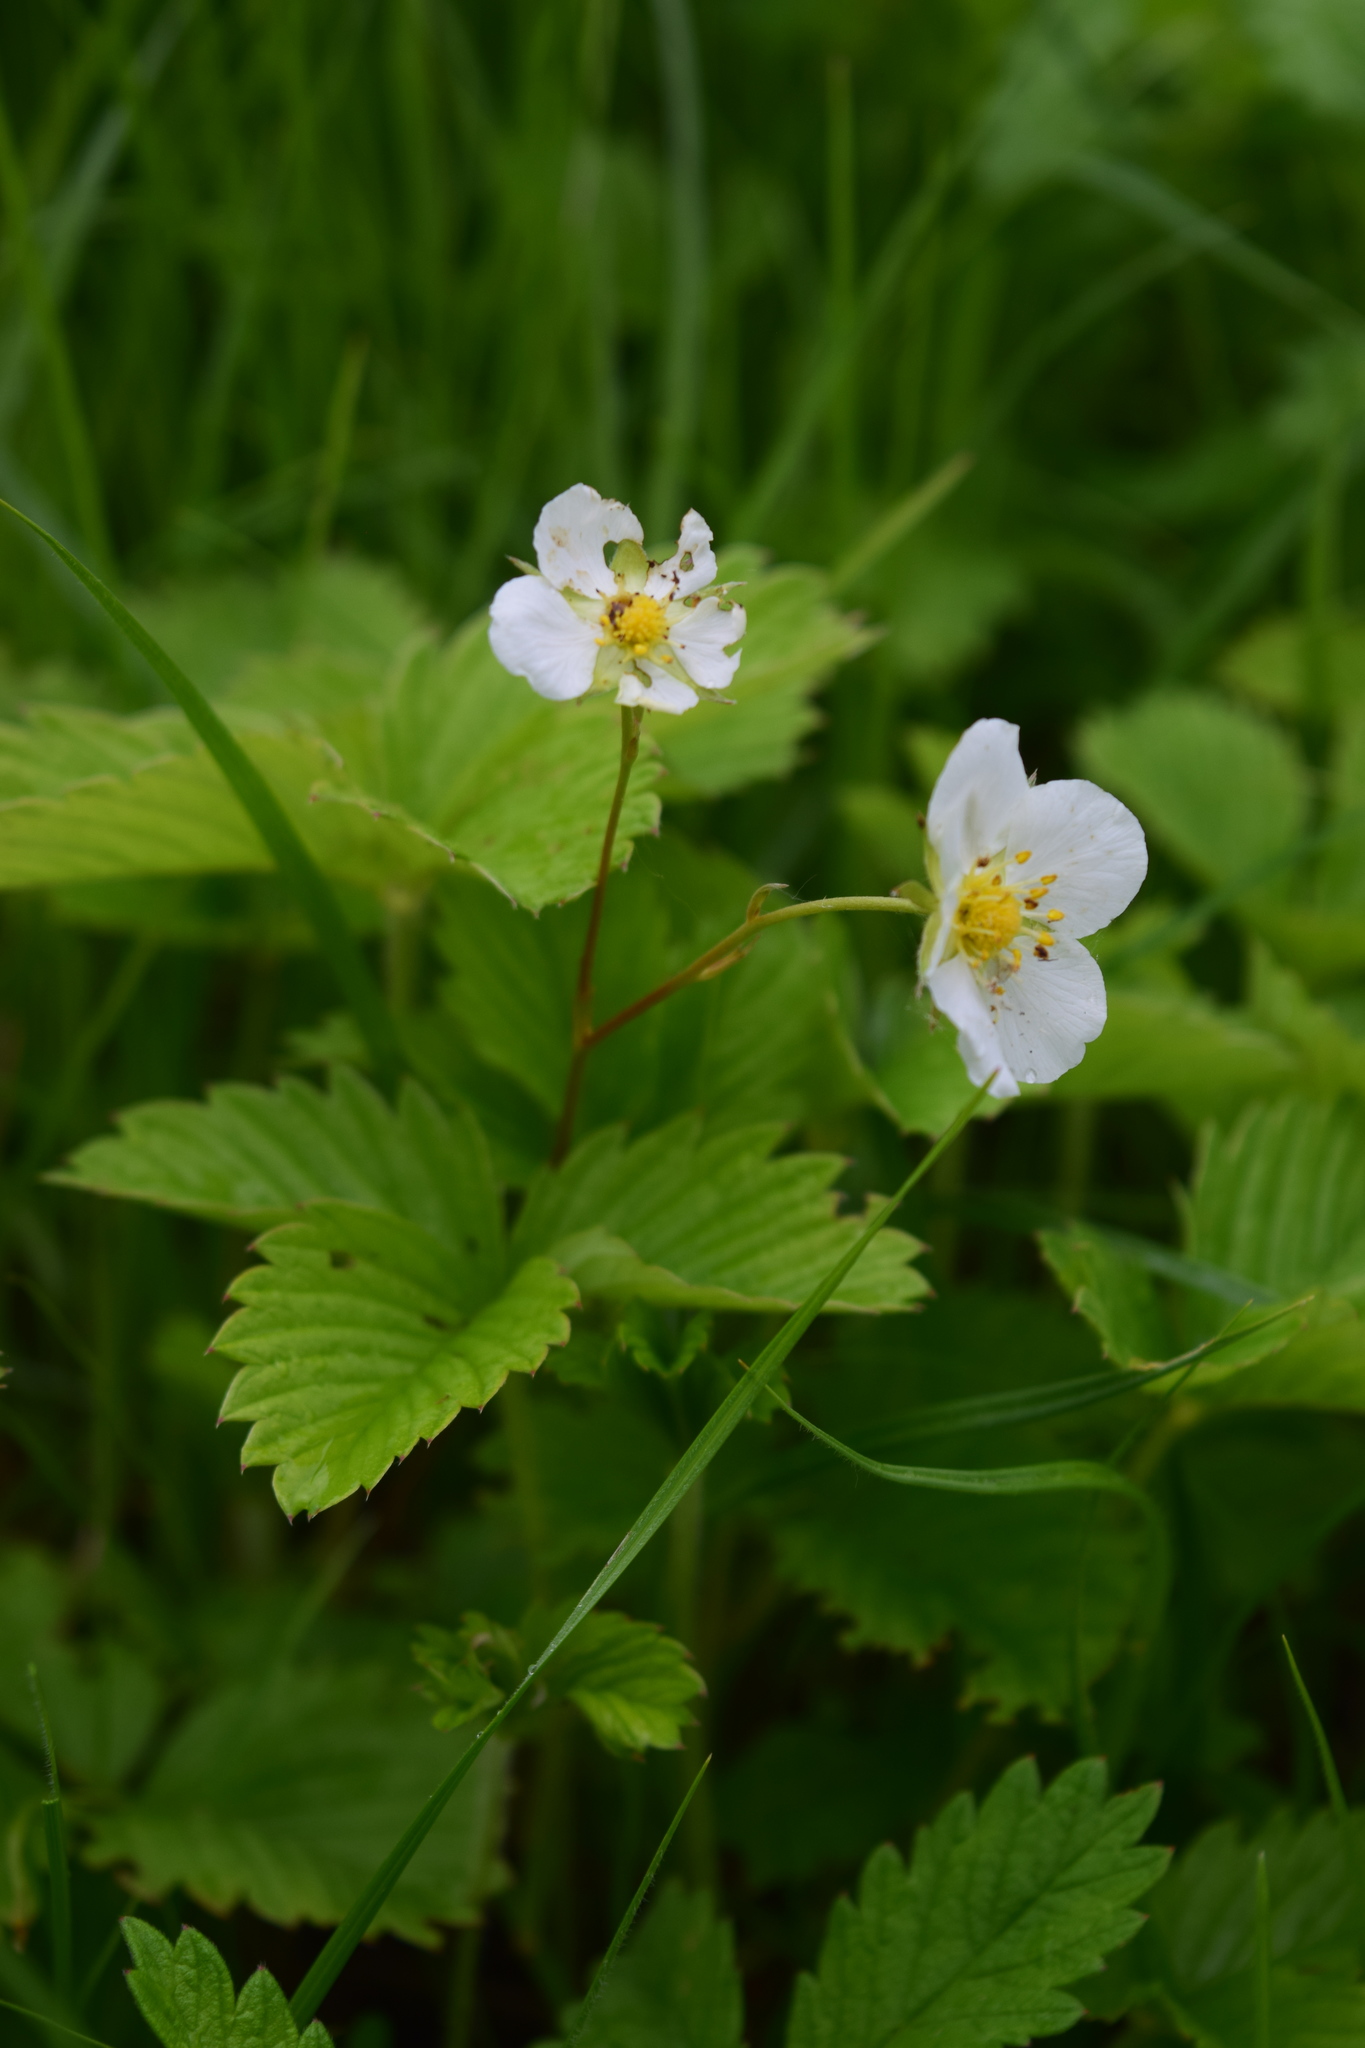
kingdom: Plantae
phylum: Tracheophyta
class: Magnoliopsida
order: Rosales
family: Rosaceae
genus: Fragaria
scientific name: Fragaria viridis
